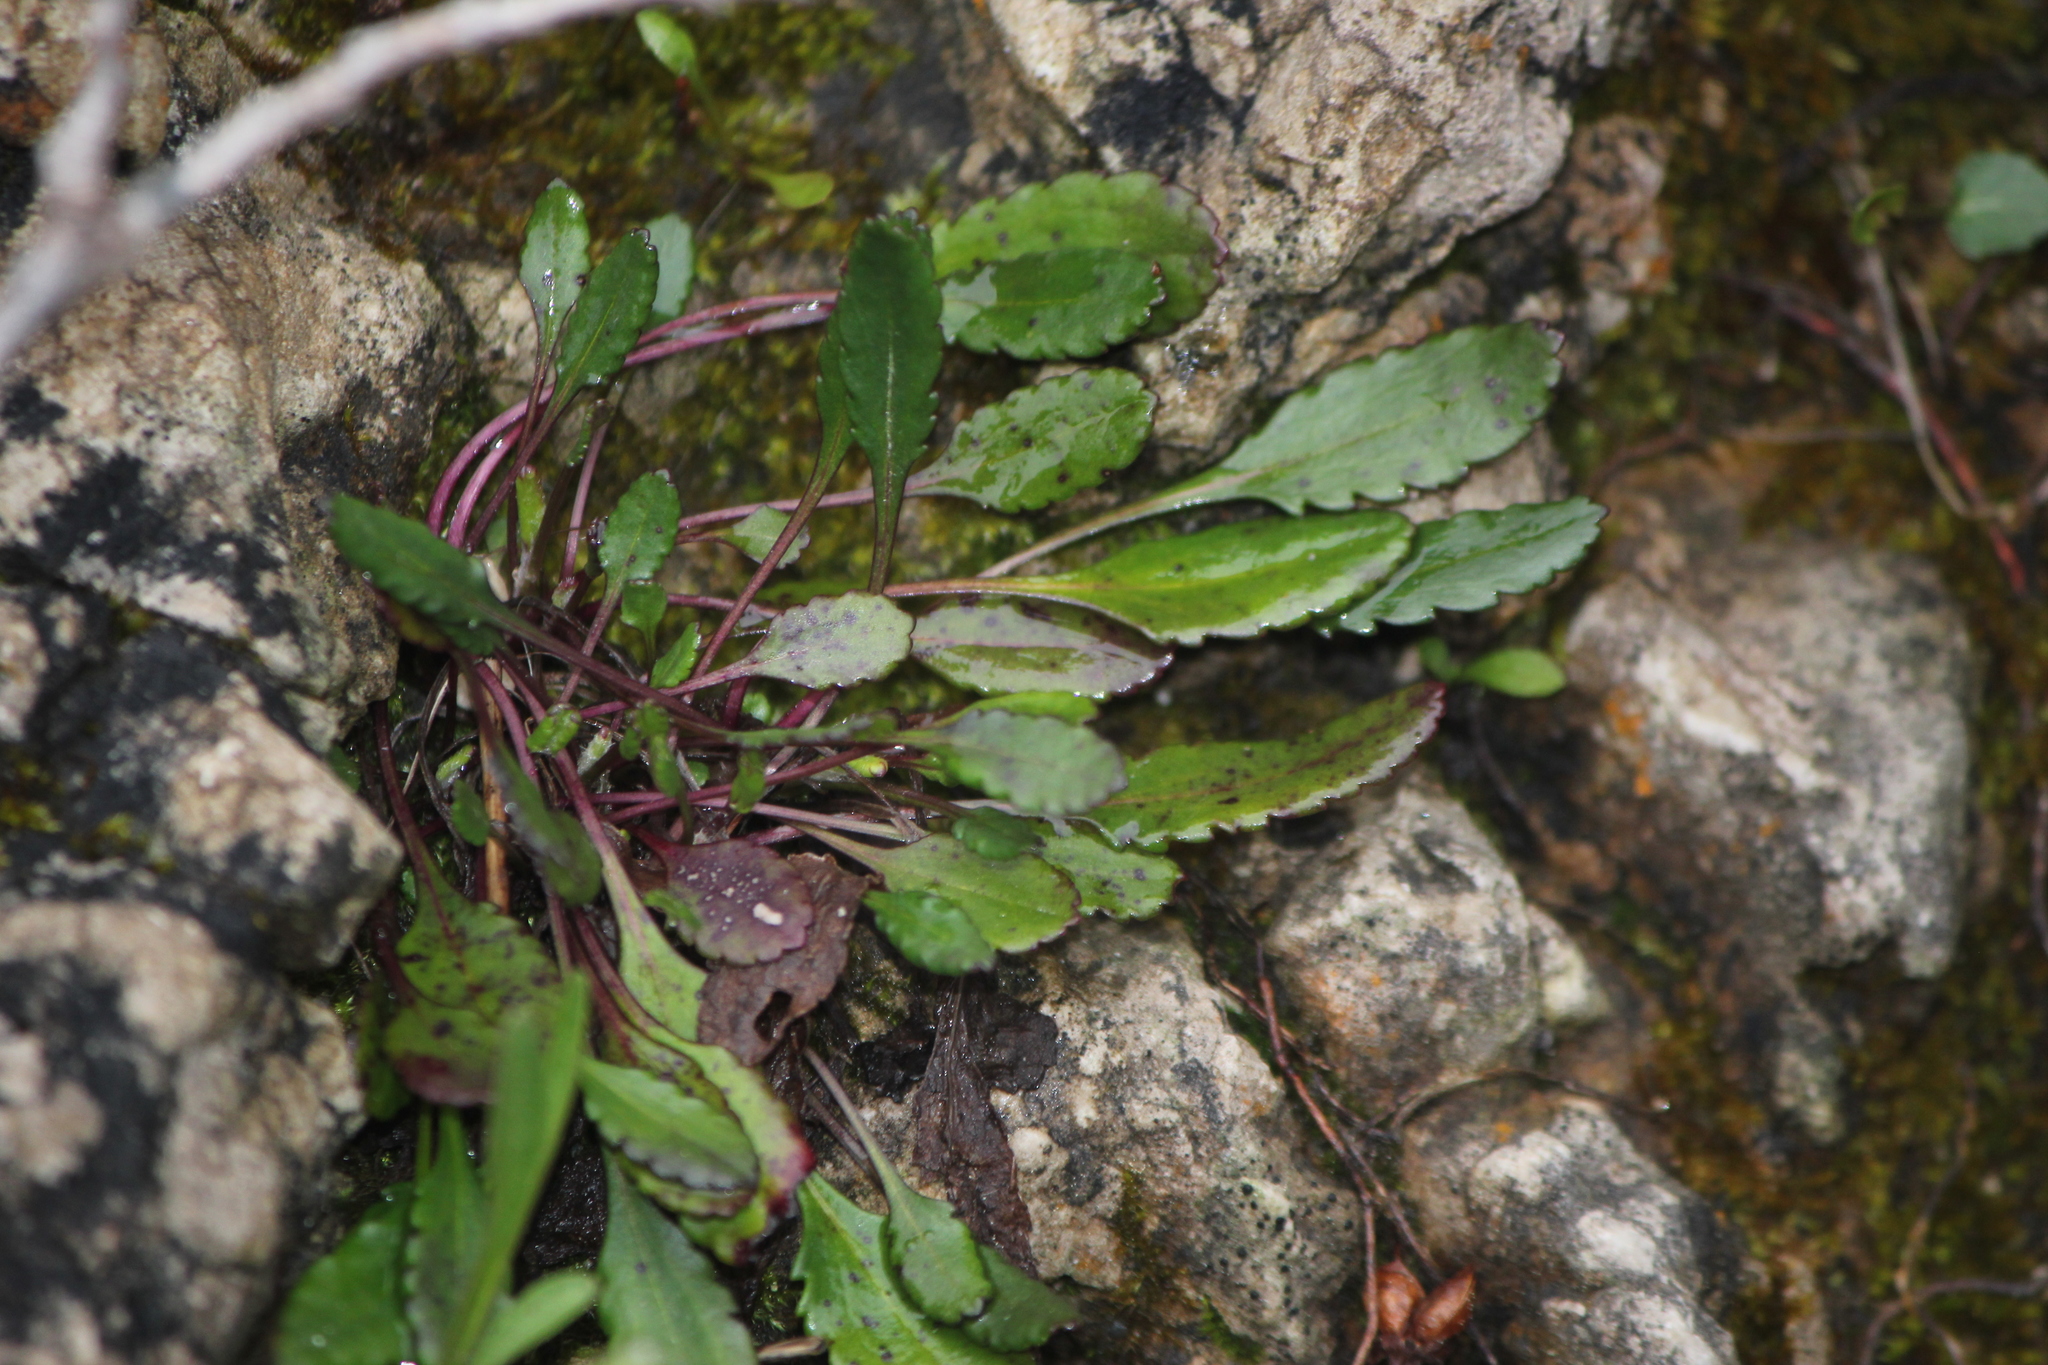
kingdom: Plantae
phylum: Tracheophyta
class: Magnoliopsida
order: Asterales
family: Asteraceae
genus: Packera
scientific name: Packera paupercula
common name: Balsam groundsel
